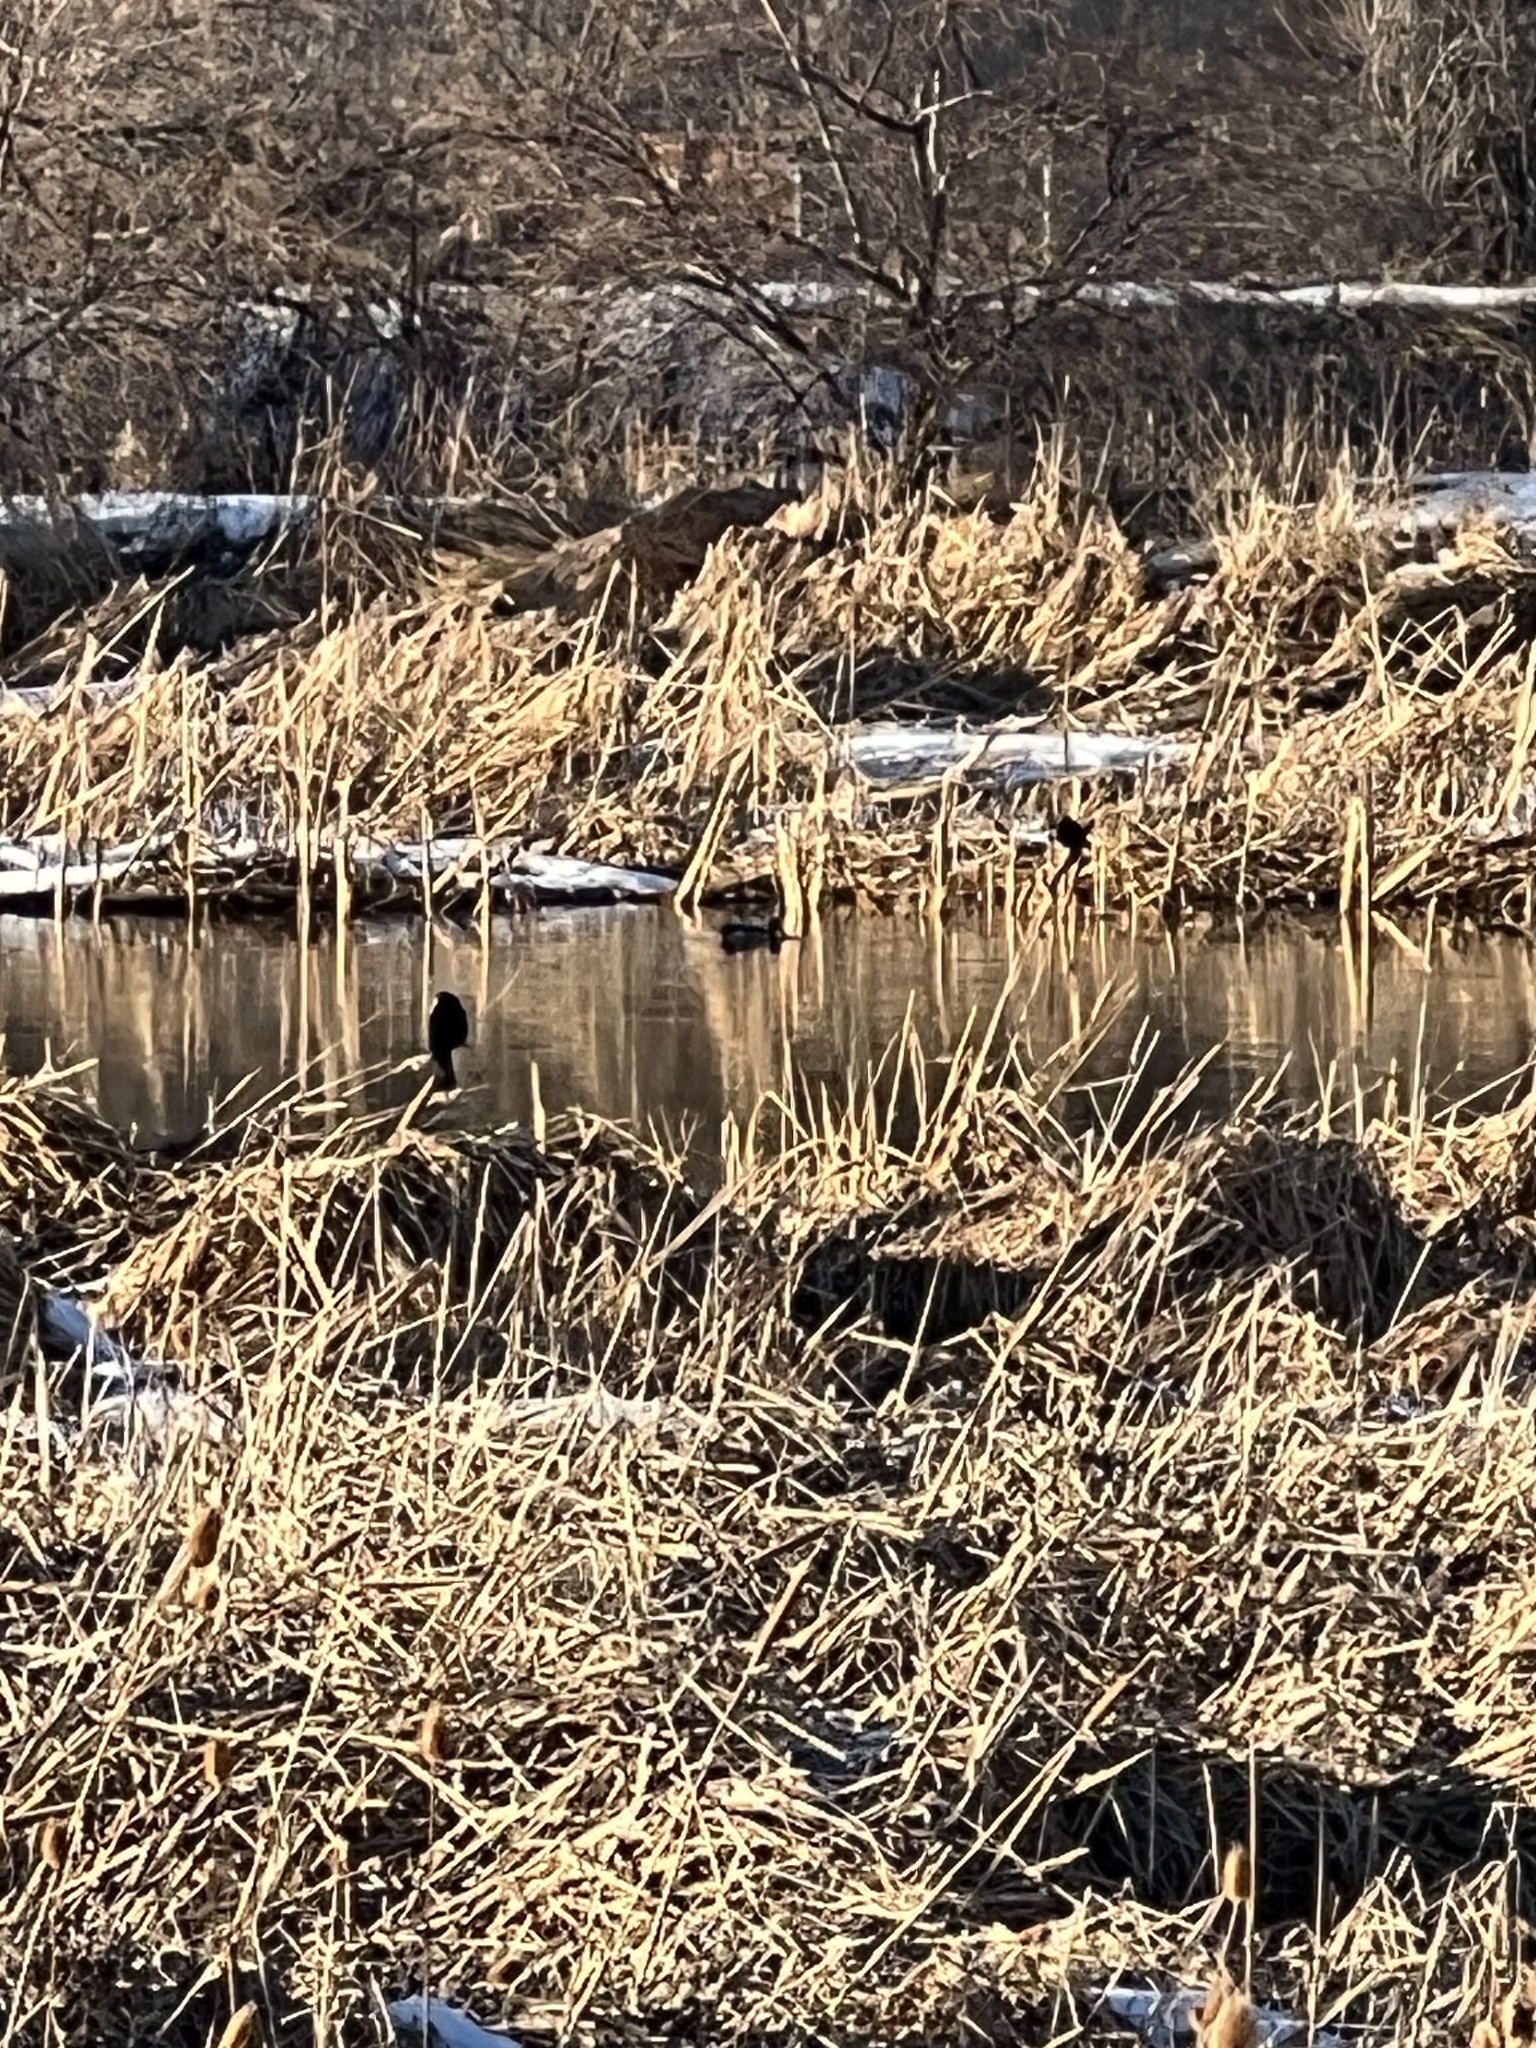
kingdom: Animalia
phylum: Chordata
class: Aves
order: Passeriformes
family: Icteridae
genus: Agelaius
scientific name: Agelaius phoeniceus
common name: Red-winged blackbird
